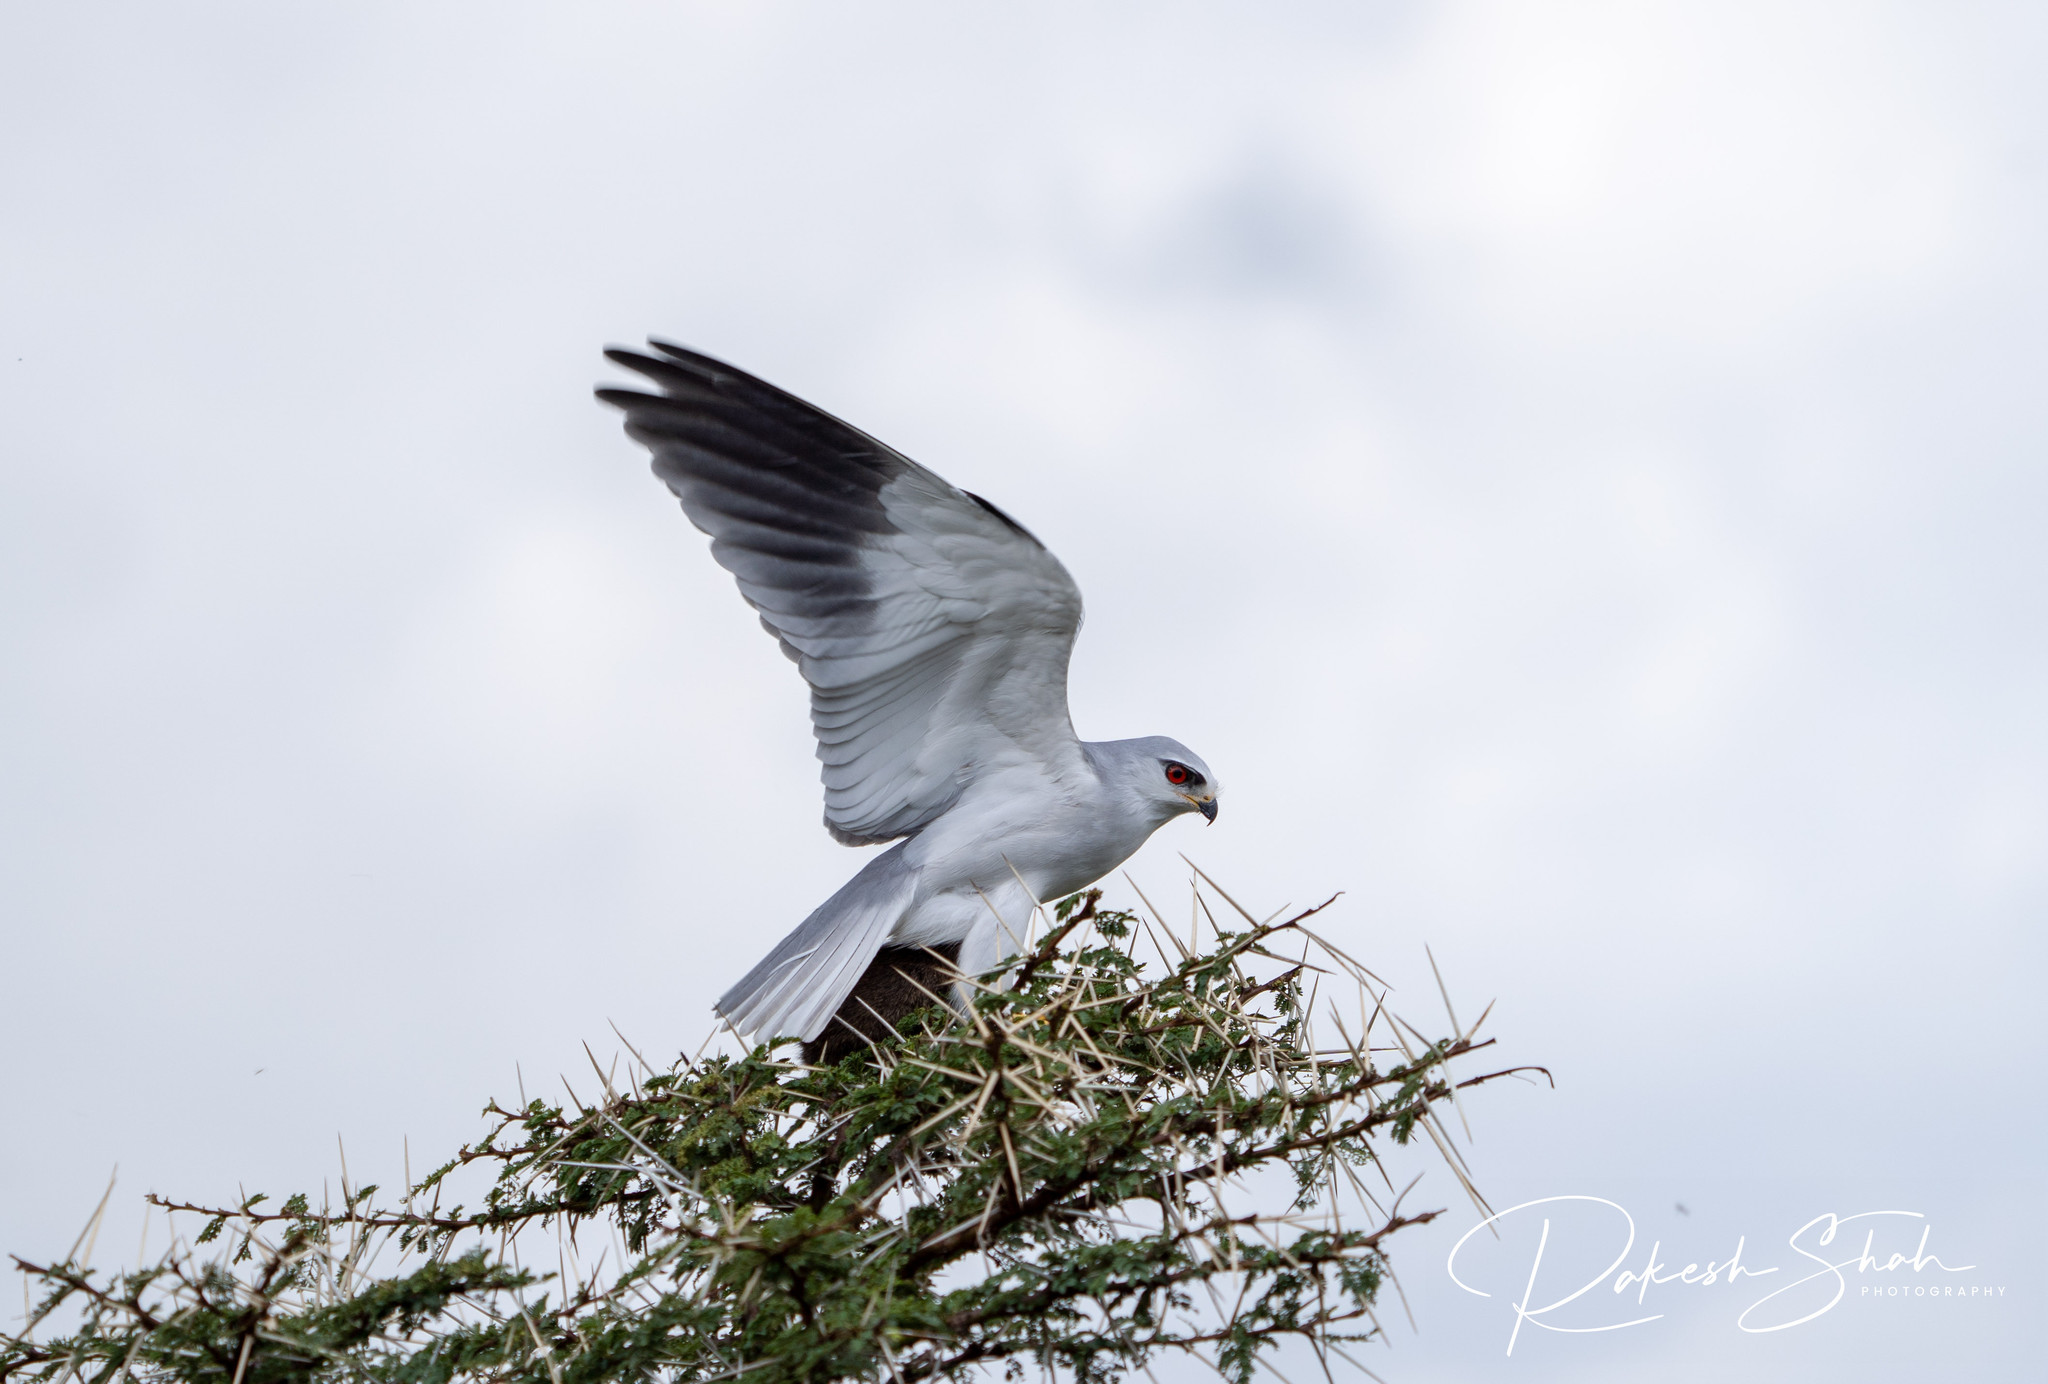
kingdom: Animalia
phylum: Chordata
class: Aves
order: Accipitriformes
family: Accipitridae
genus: Elanus
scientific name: Elanus caeruleus
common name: Black-winged kite
